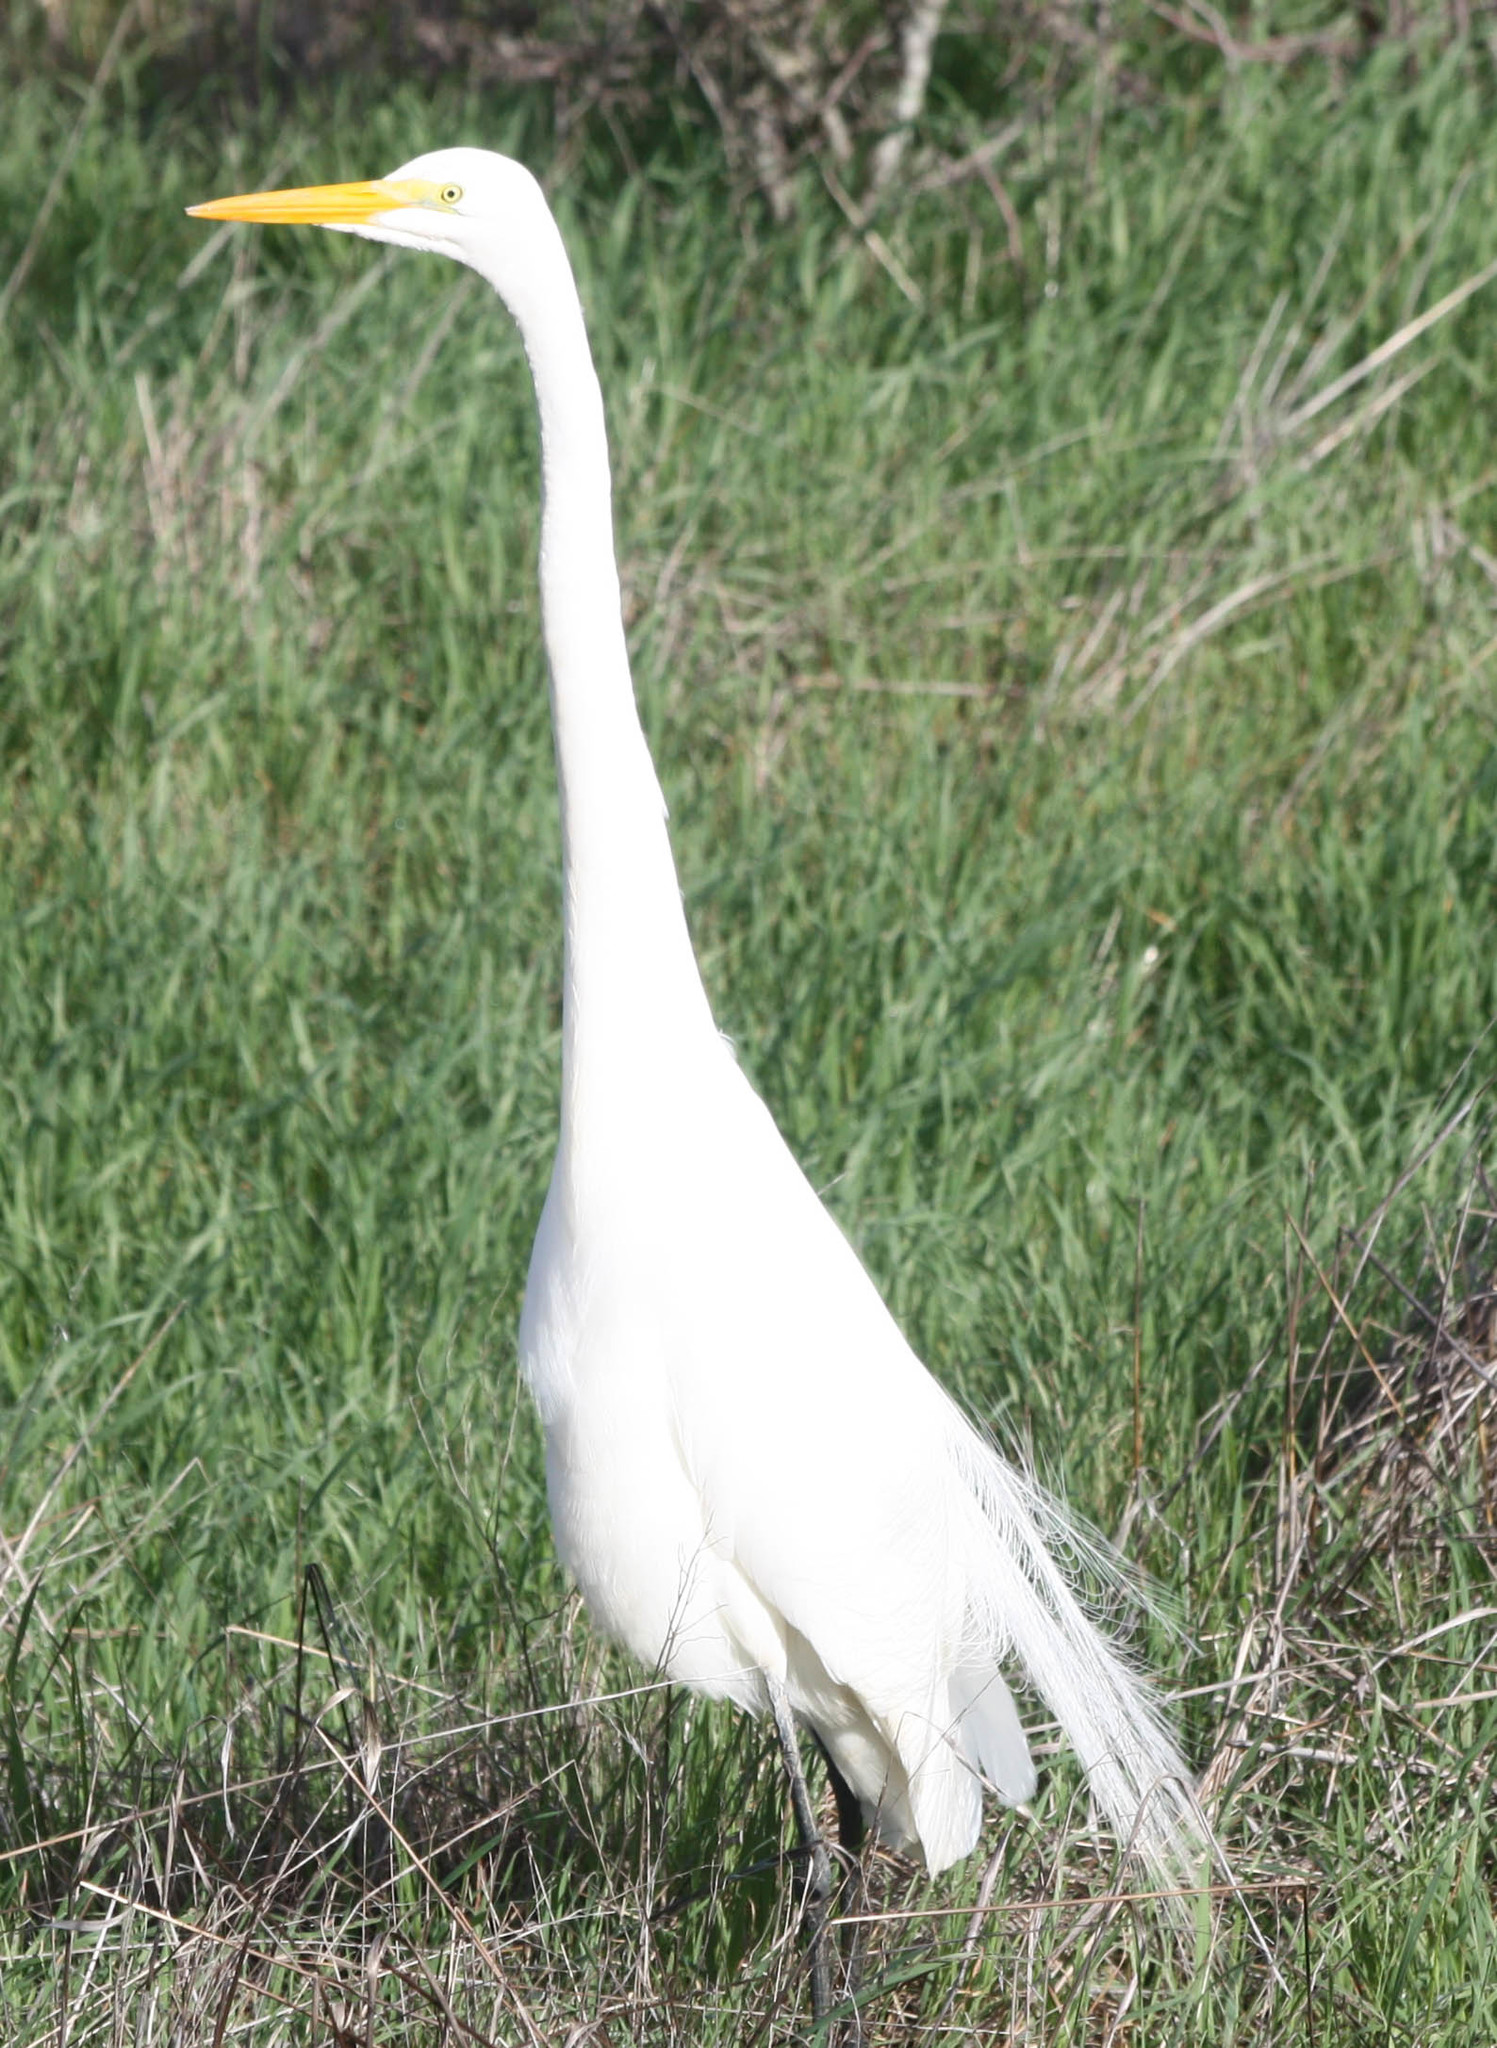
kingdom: Animalia
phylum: Chordata
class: Aves
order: Pelecaniformes
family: Ardeidae
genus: Ardea
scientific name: Ardea alba
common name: Great egret
